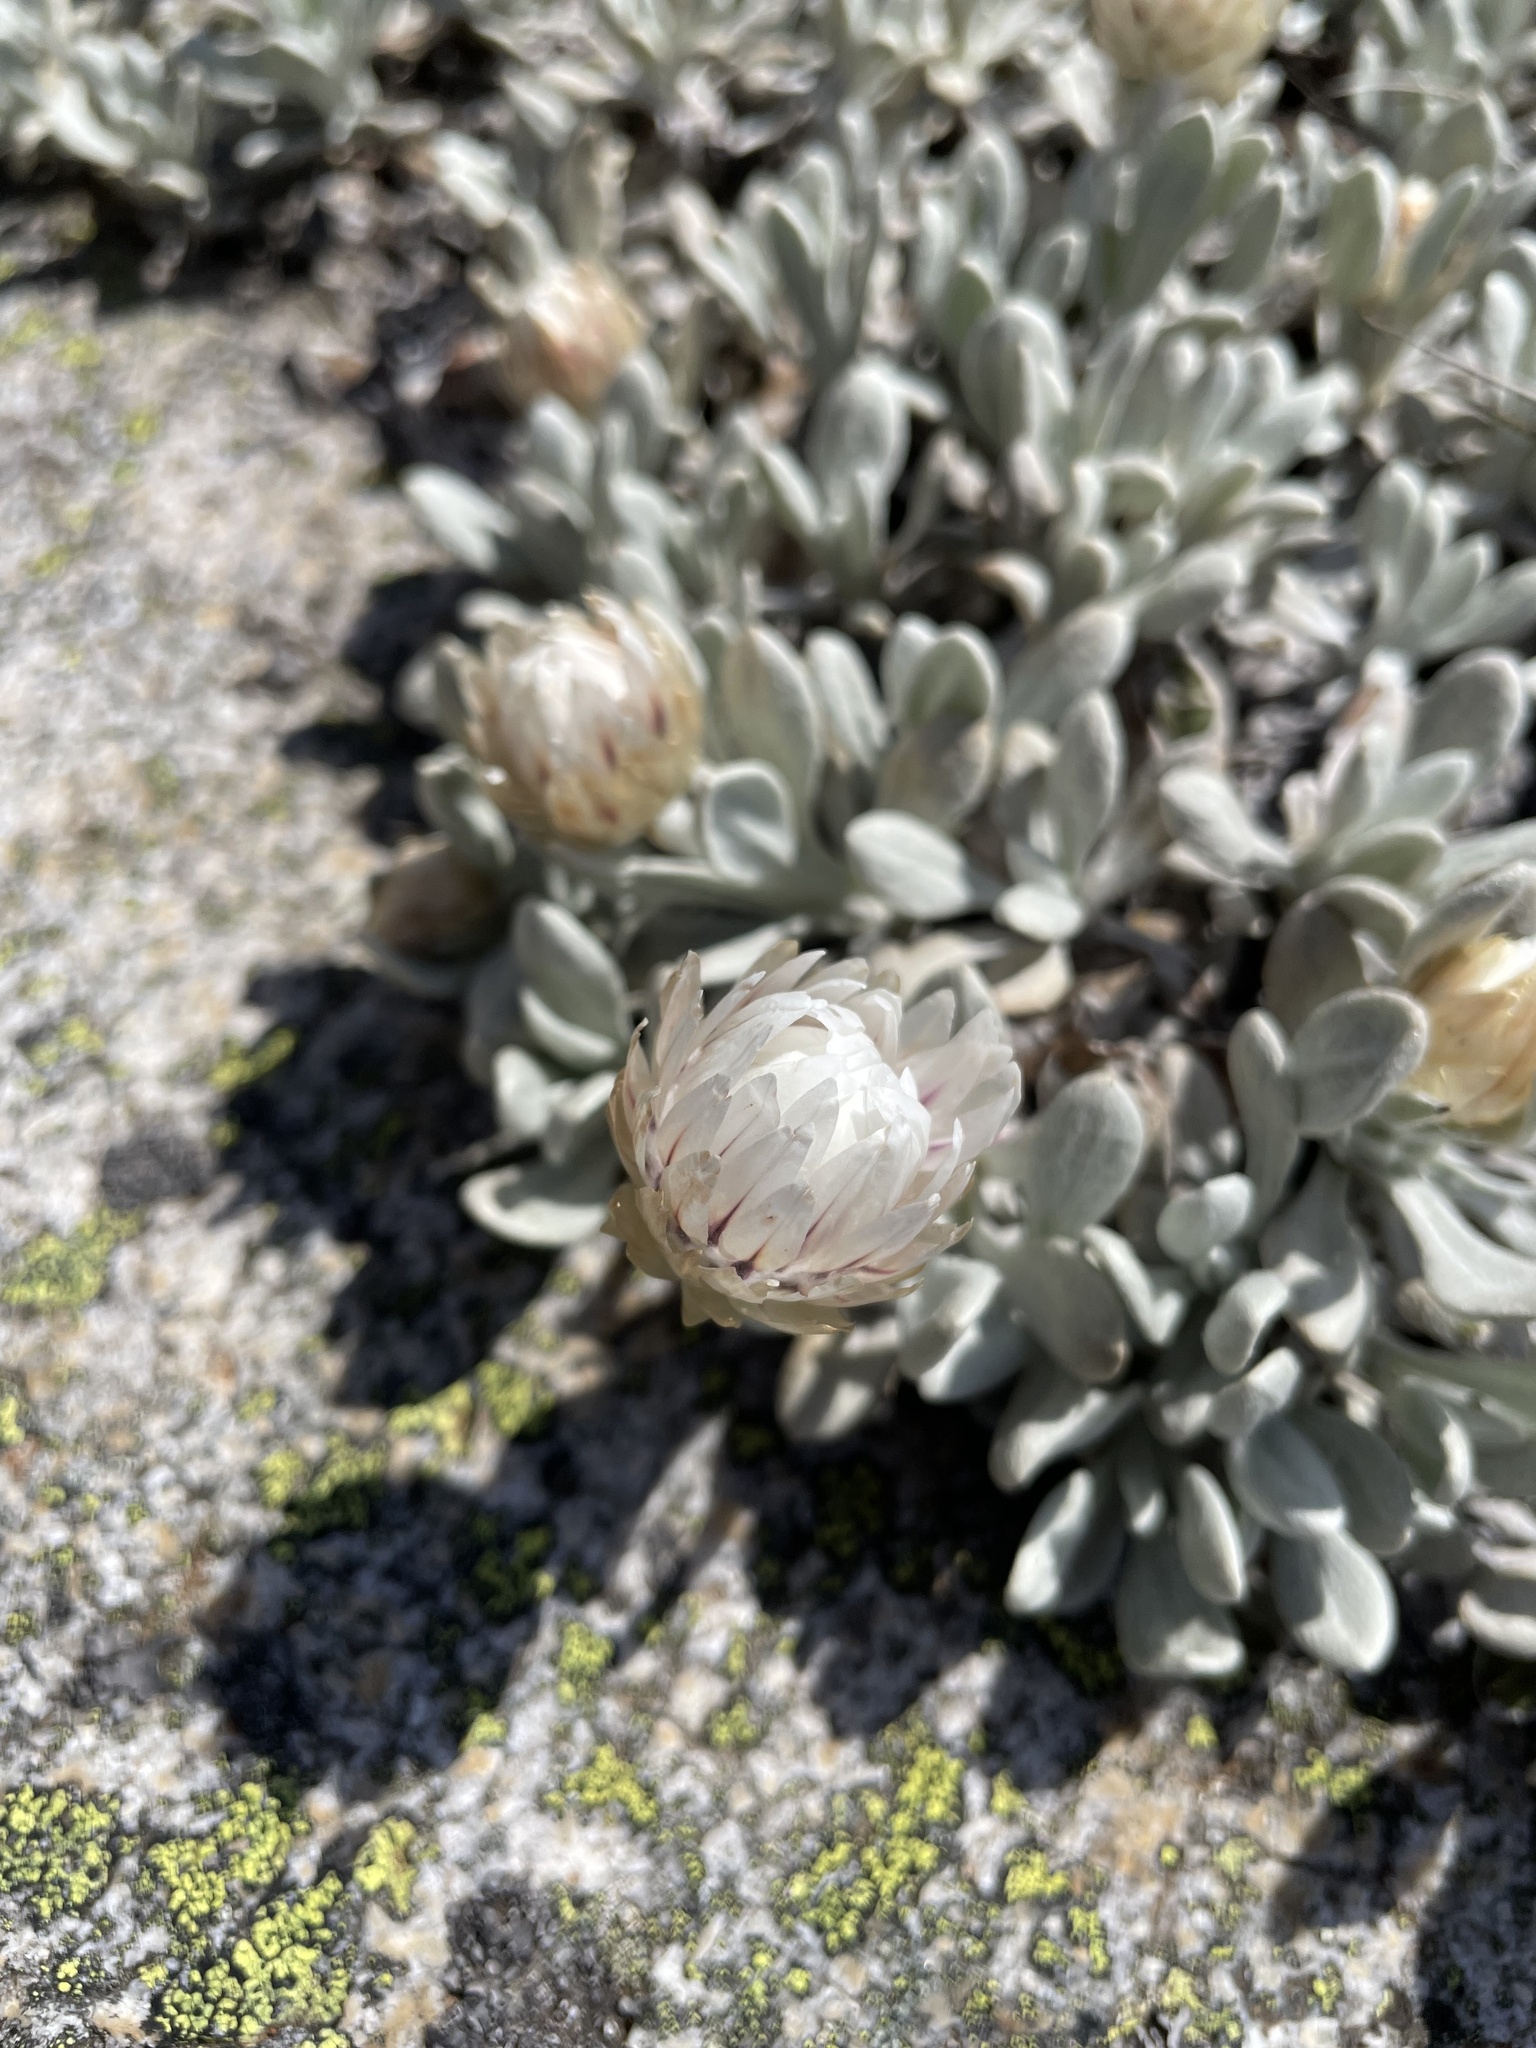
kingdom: Plantae
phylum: Tracheophyta
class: Magnoliopsida
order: Asterales
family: Asteraceae
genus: Leucochrysum
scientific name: Leucochrysum alpinum
